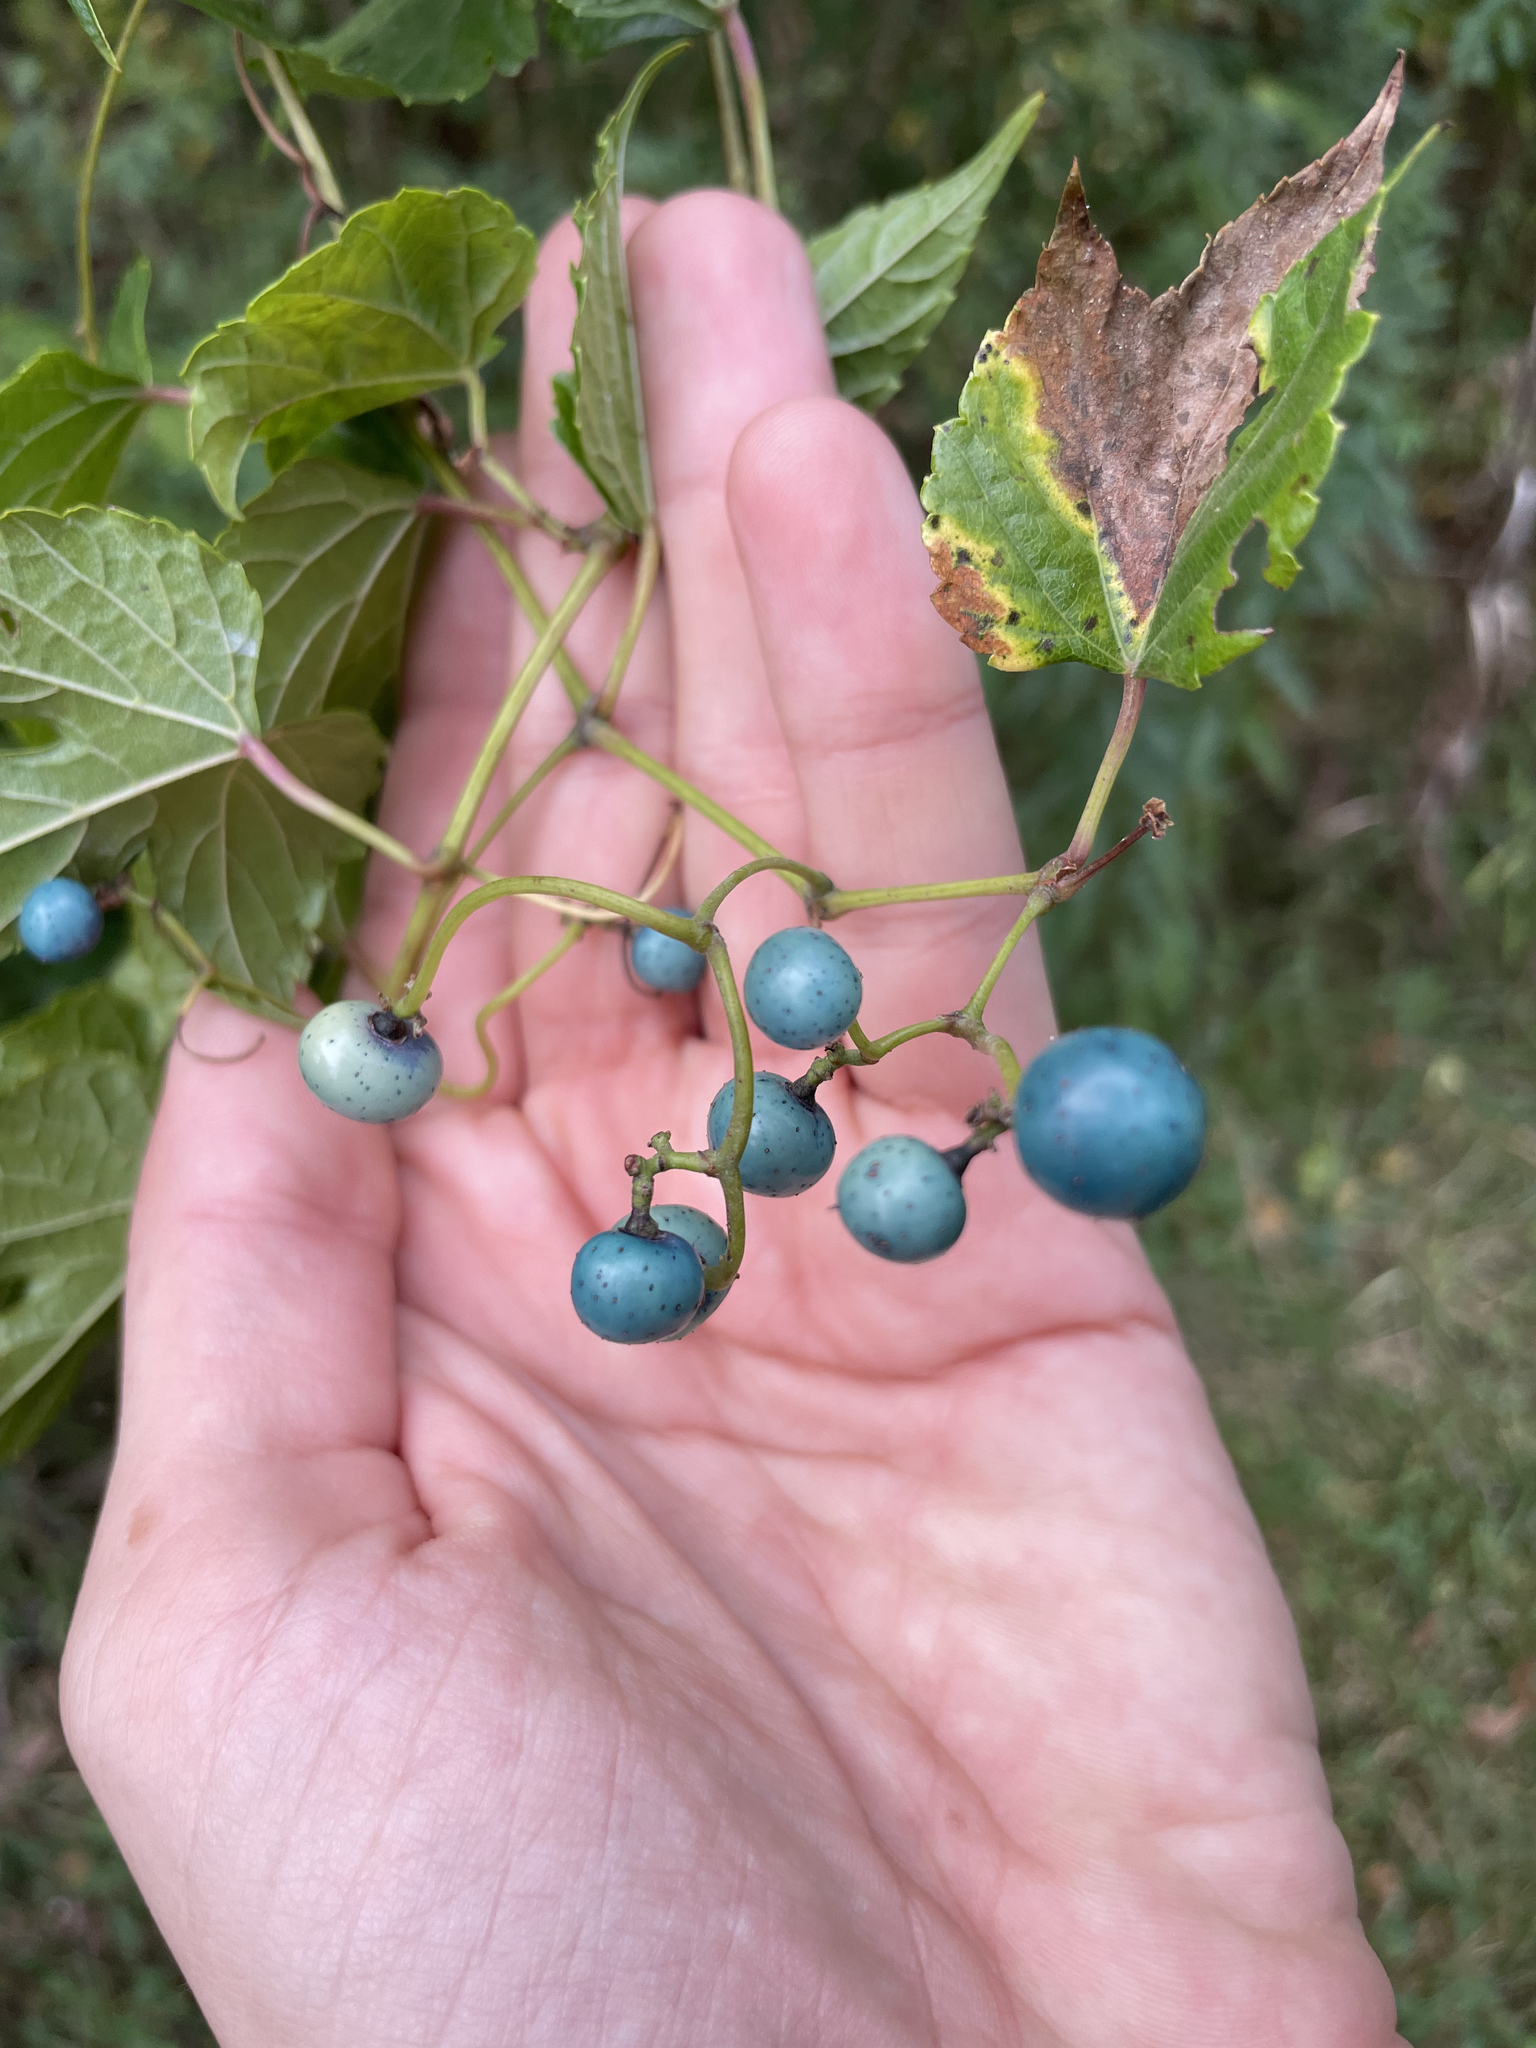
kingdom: Plantae
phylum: Tracheophyta
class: Magnoliopsida
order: Vitales
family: Vitaceae
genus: Ampelopsis
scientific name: Ampelopsis glandulosa
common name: Amur peppervine
